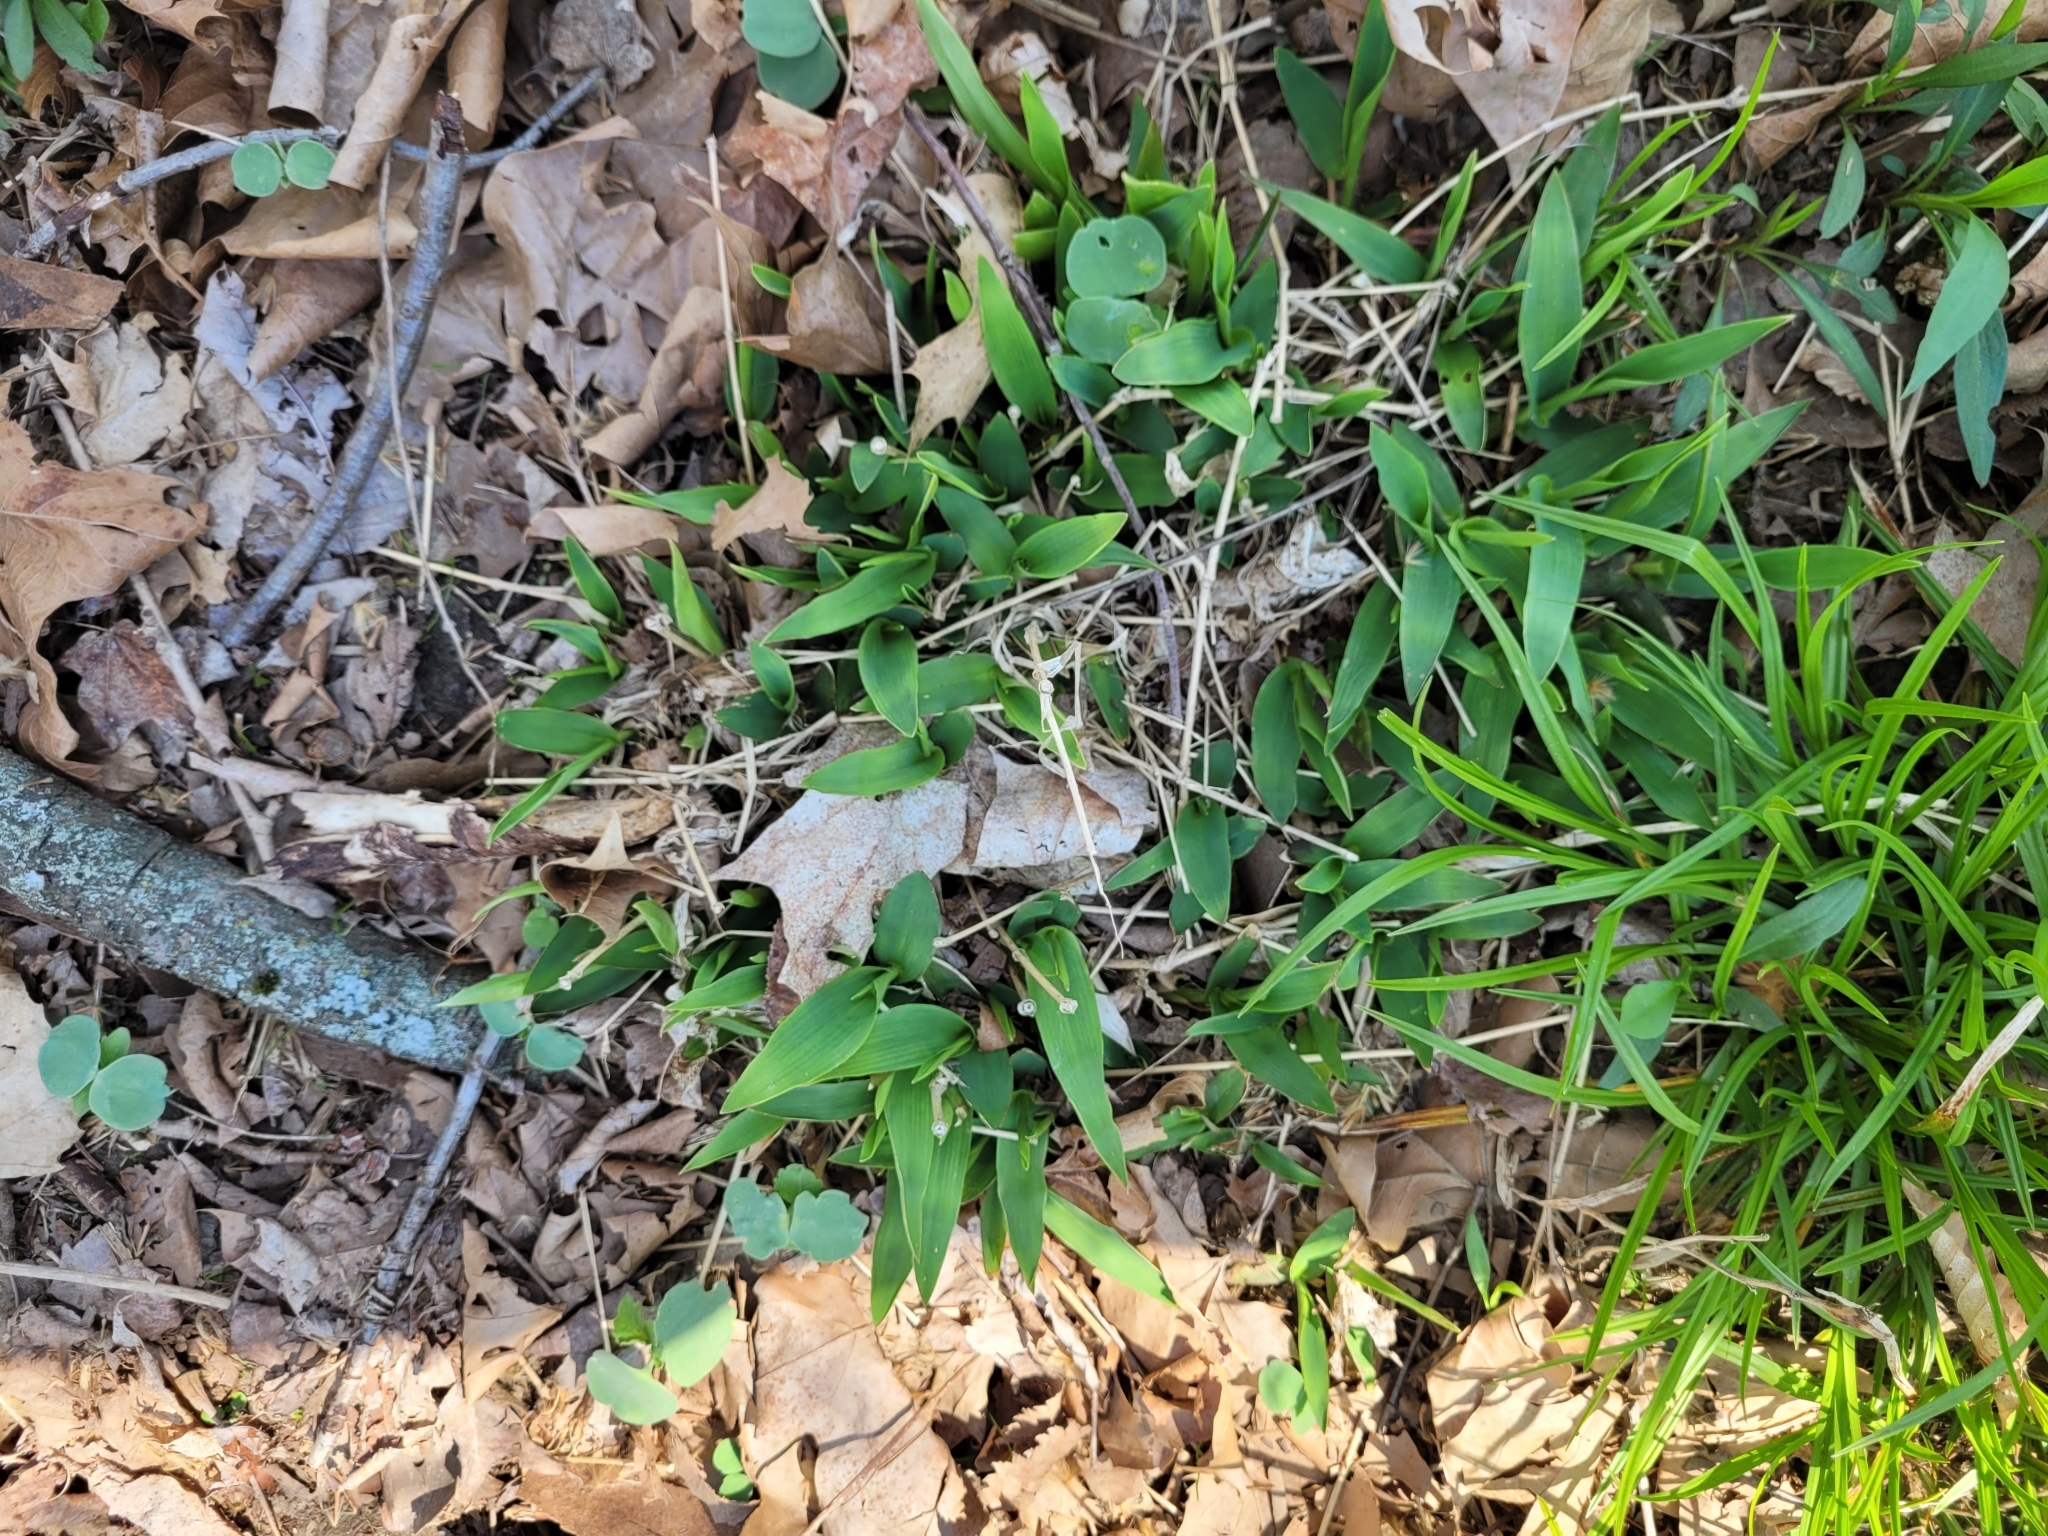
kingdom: Plantae
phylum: Tracheophyta
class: Liliopsida
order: Poales
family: Poaceae
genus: Dichanthelium
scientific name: Dichanthelium
